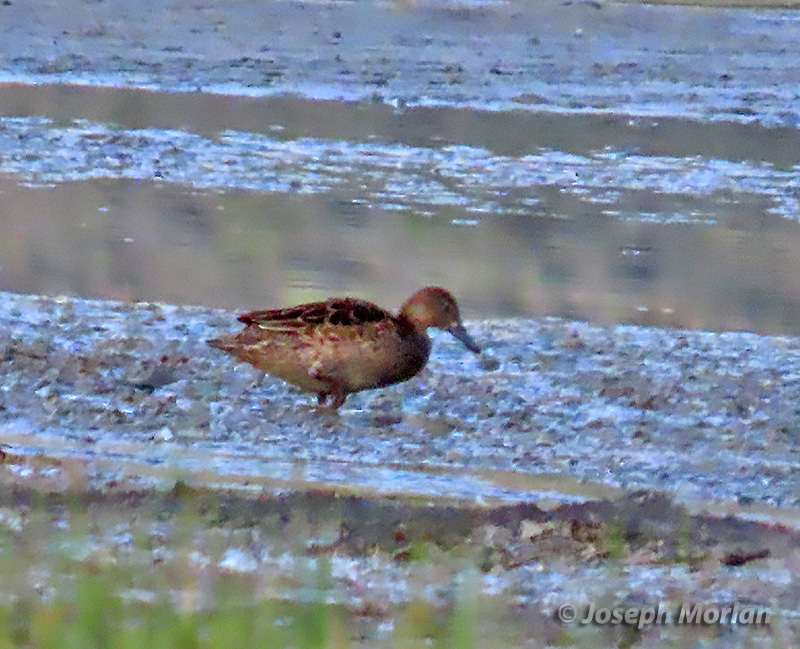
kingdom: Animalia
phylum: Chordata
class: Aves
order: Anseriformes
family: Anatidae
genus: Spatula
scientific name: Spatula cyanoptera
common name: Cinnamon teal
